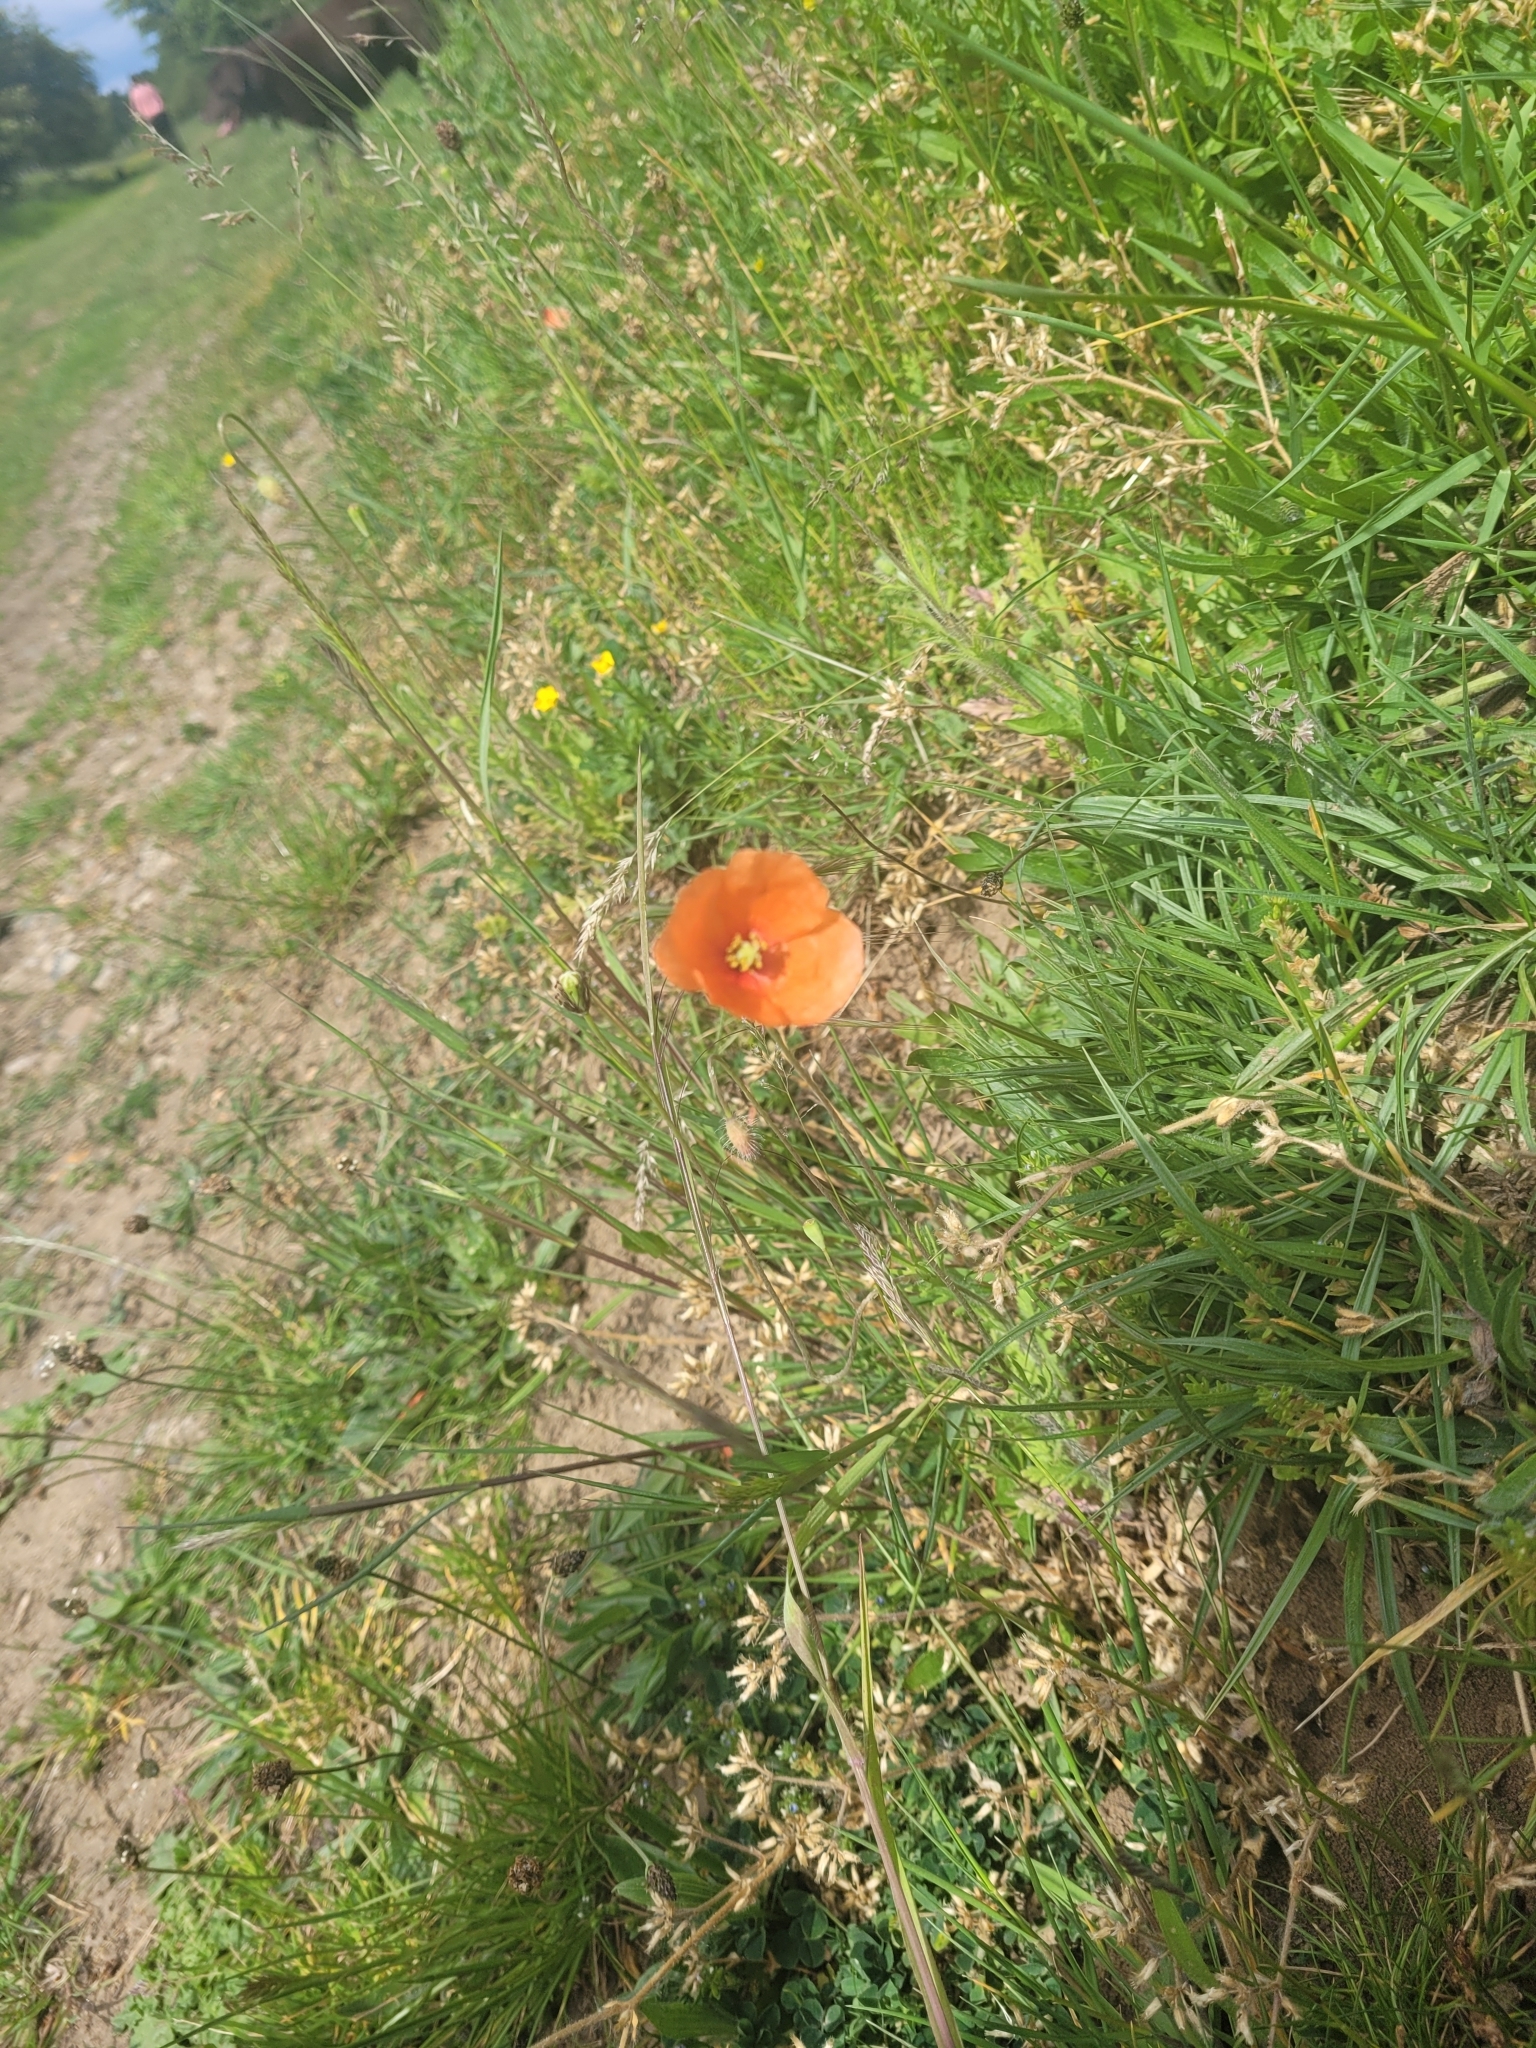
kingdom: Plantae
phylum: Tracheophyta
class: Magnoliopsida
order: Ranunculales
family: Papaveraceae
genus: Papaver
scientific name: Papaver dubium
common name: Long-headed poppy
